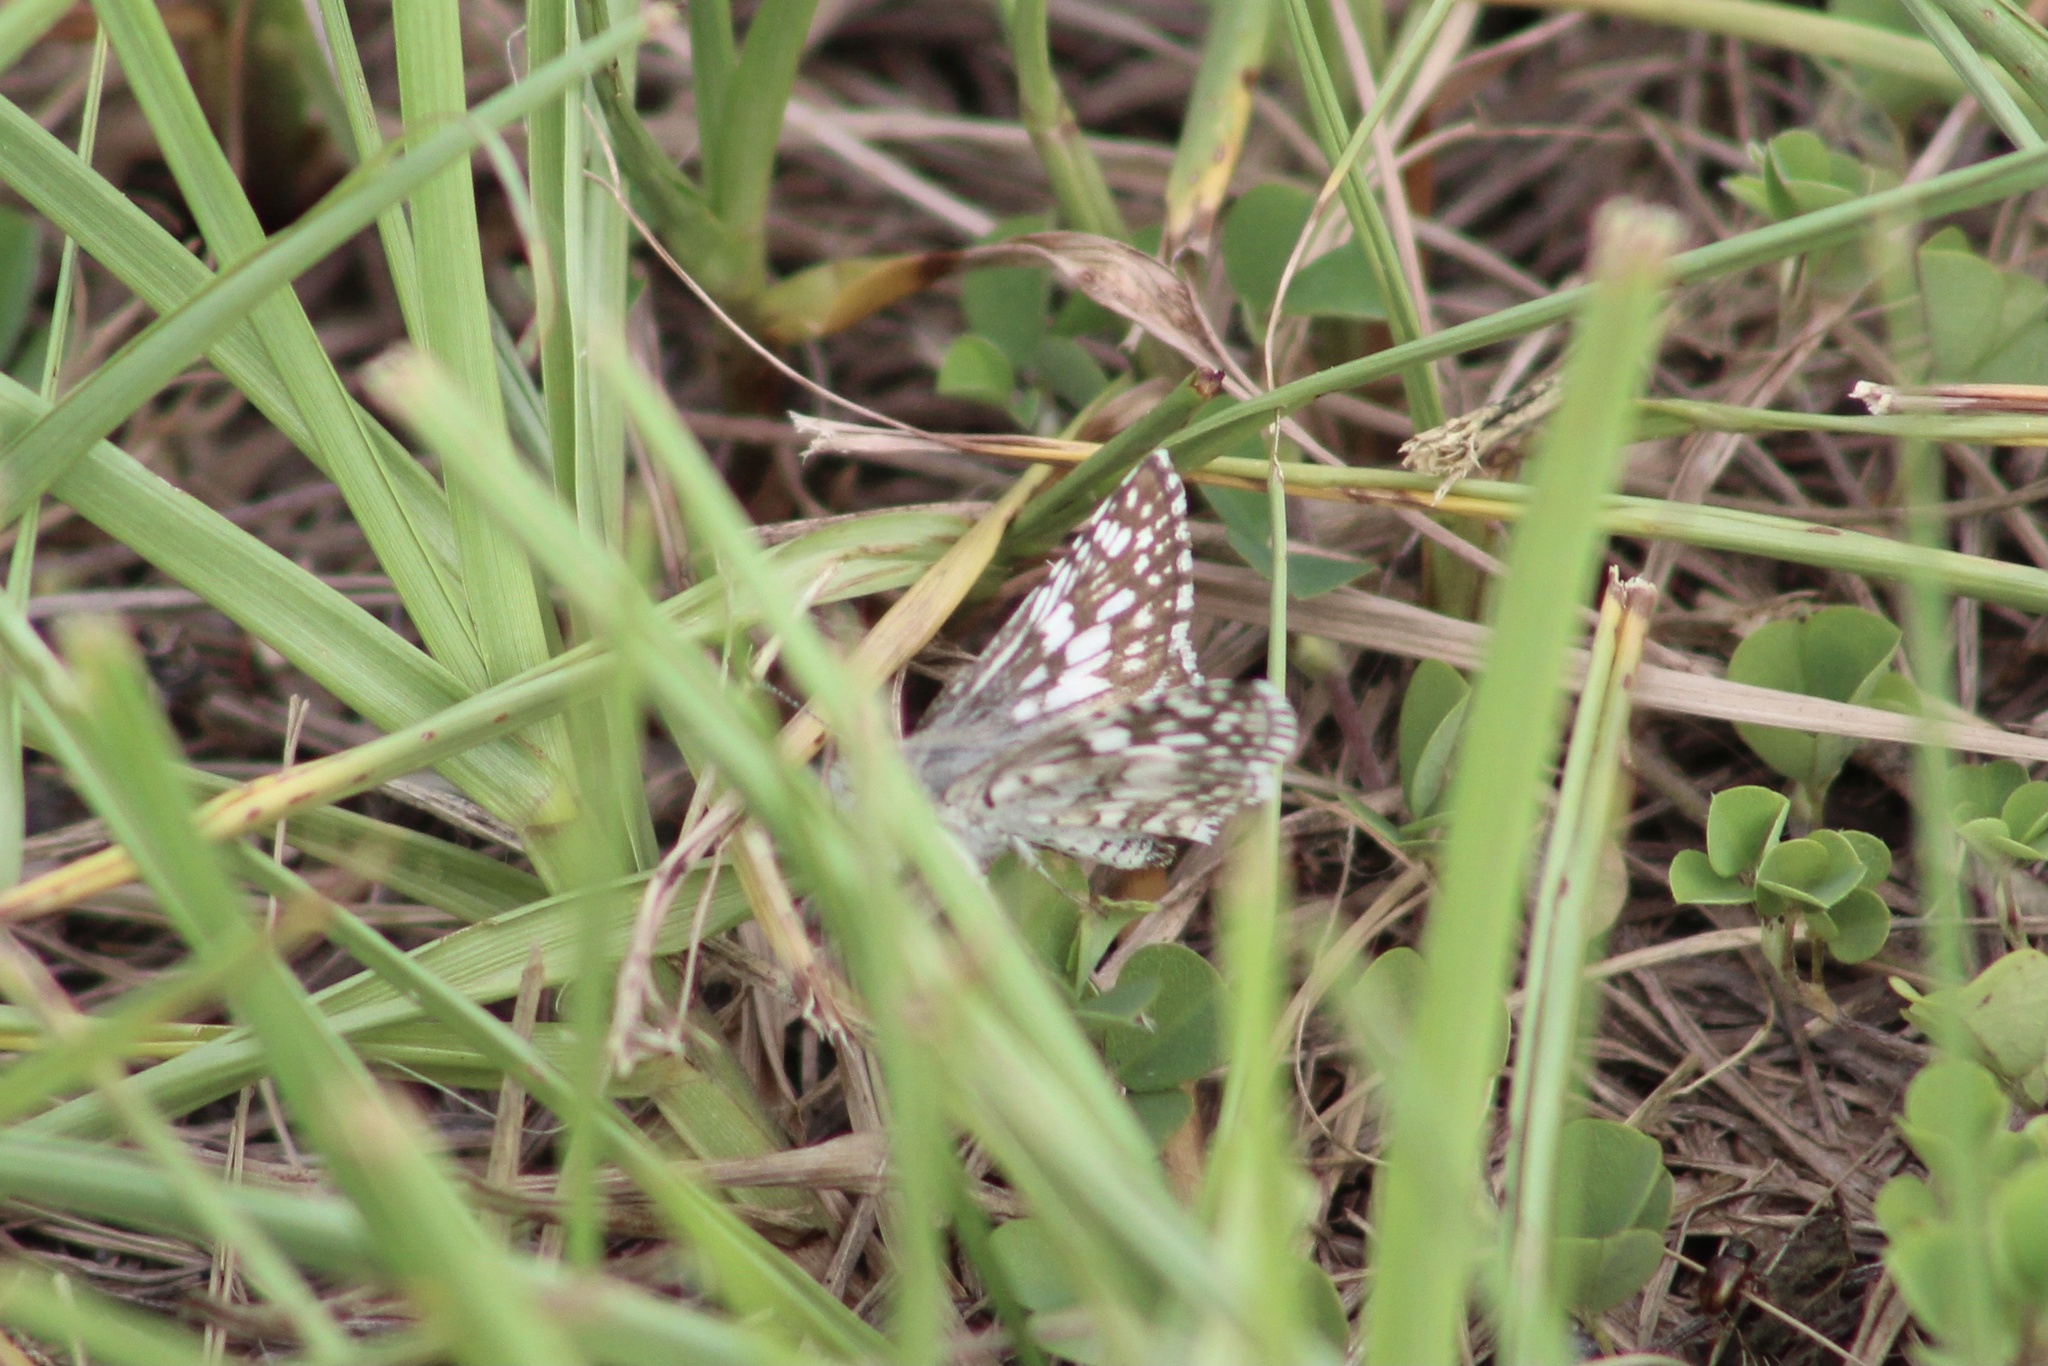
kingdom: Animalia
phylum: Arthropoda
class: Insecta
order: Lepidoptera
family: Hesperiidae
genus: Burnsius
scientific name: Burnsius albezens
